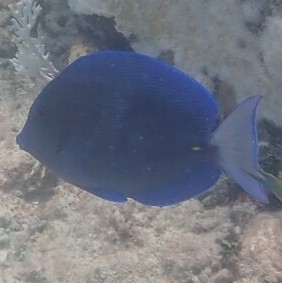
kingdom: Animalia
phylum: Chordata
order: Perciformes
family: Acanthuridae
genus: Acanthurus
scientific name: Acanthurus coeruleus
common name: Blue tang
